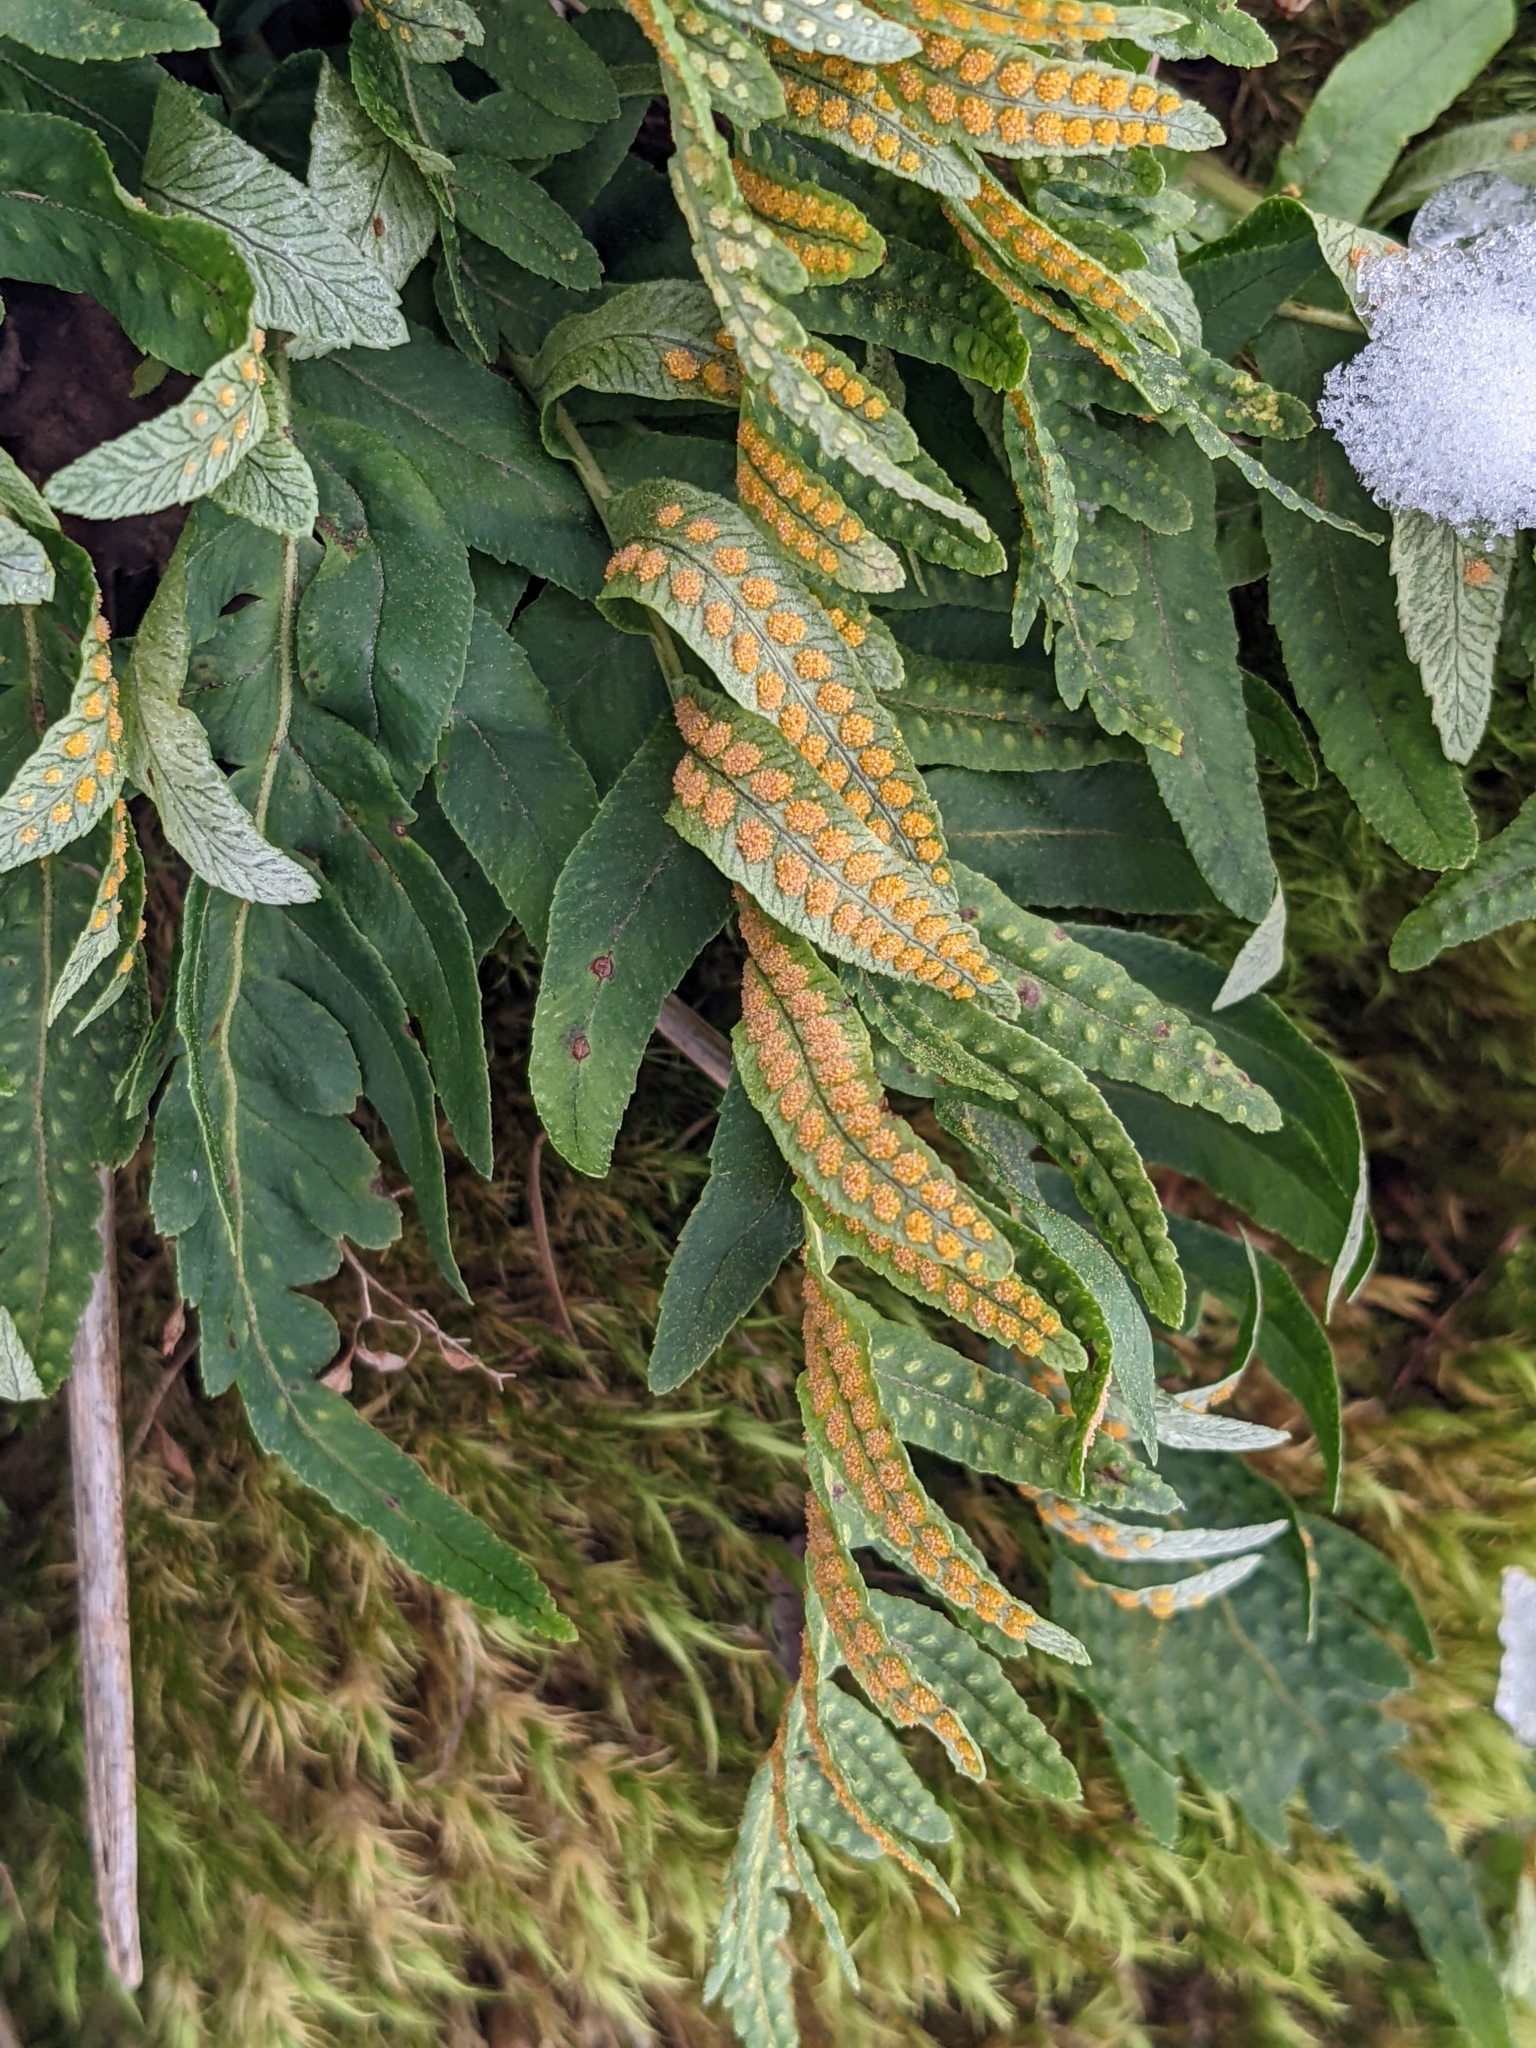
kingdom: Plantae
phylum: Tracheophyta
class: Polypodiopsida
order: Polypodiales
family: Polypodiaceae
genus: Polypodium
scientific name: Polypodium glycyrrhiza
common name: Licorice fern
